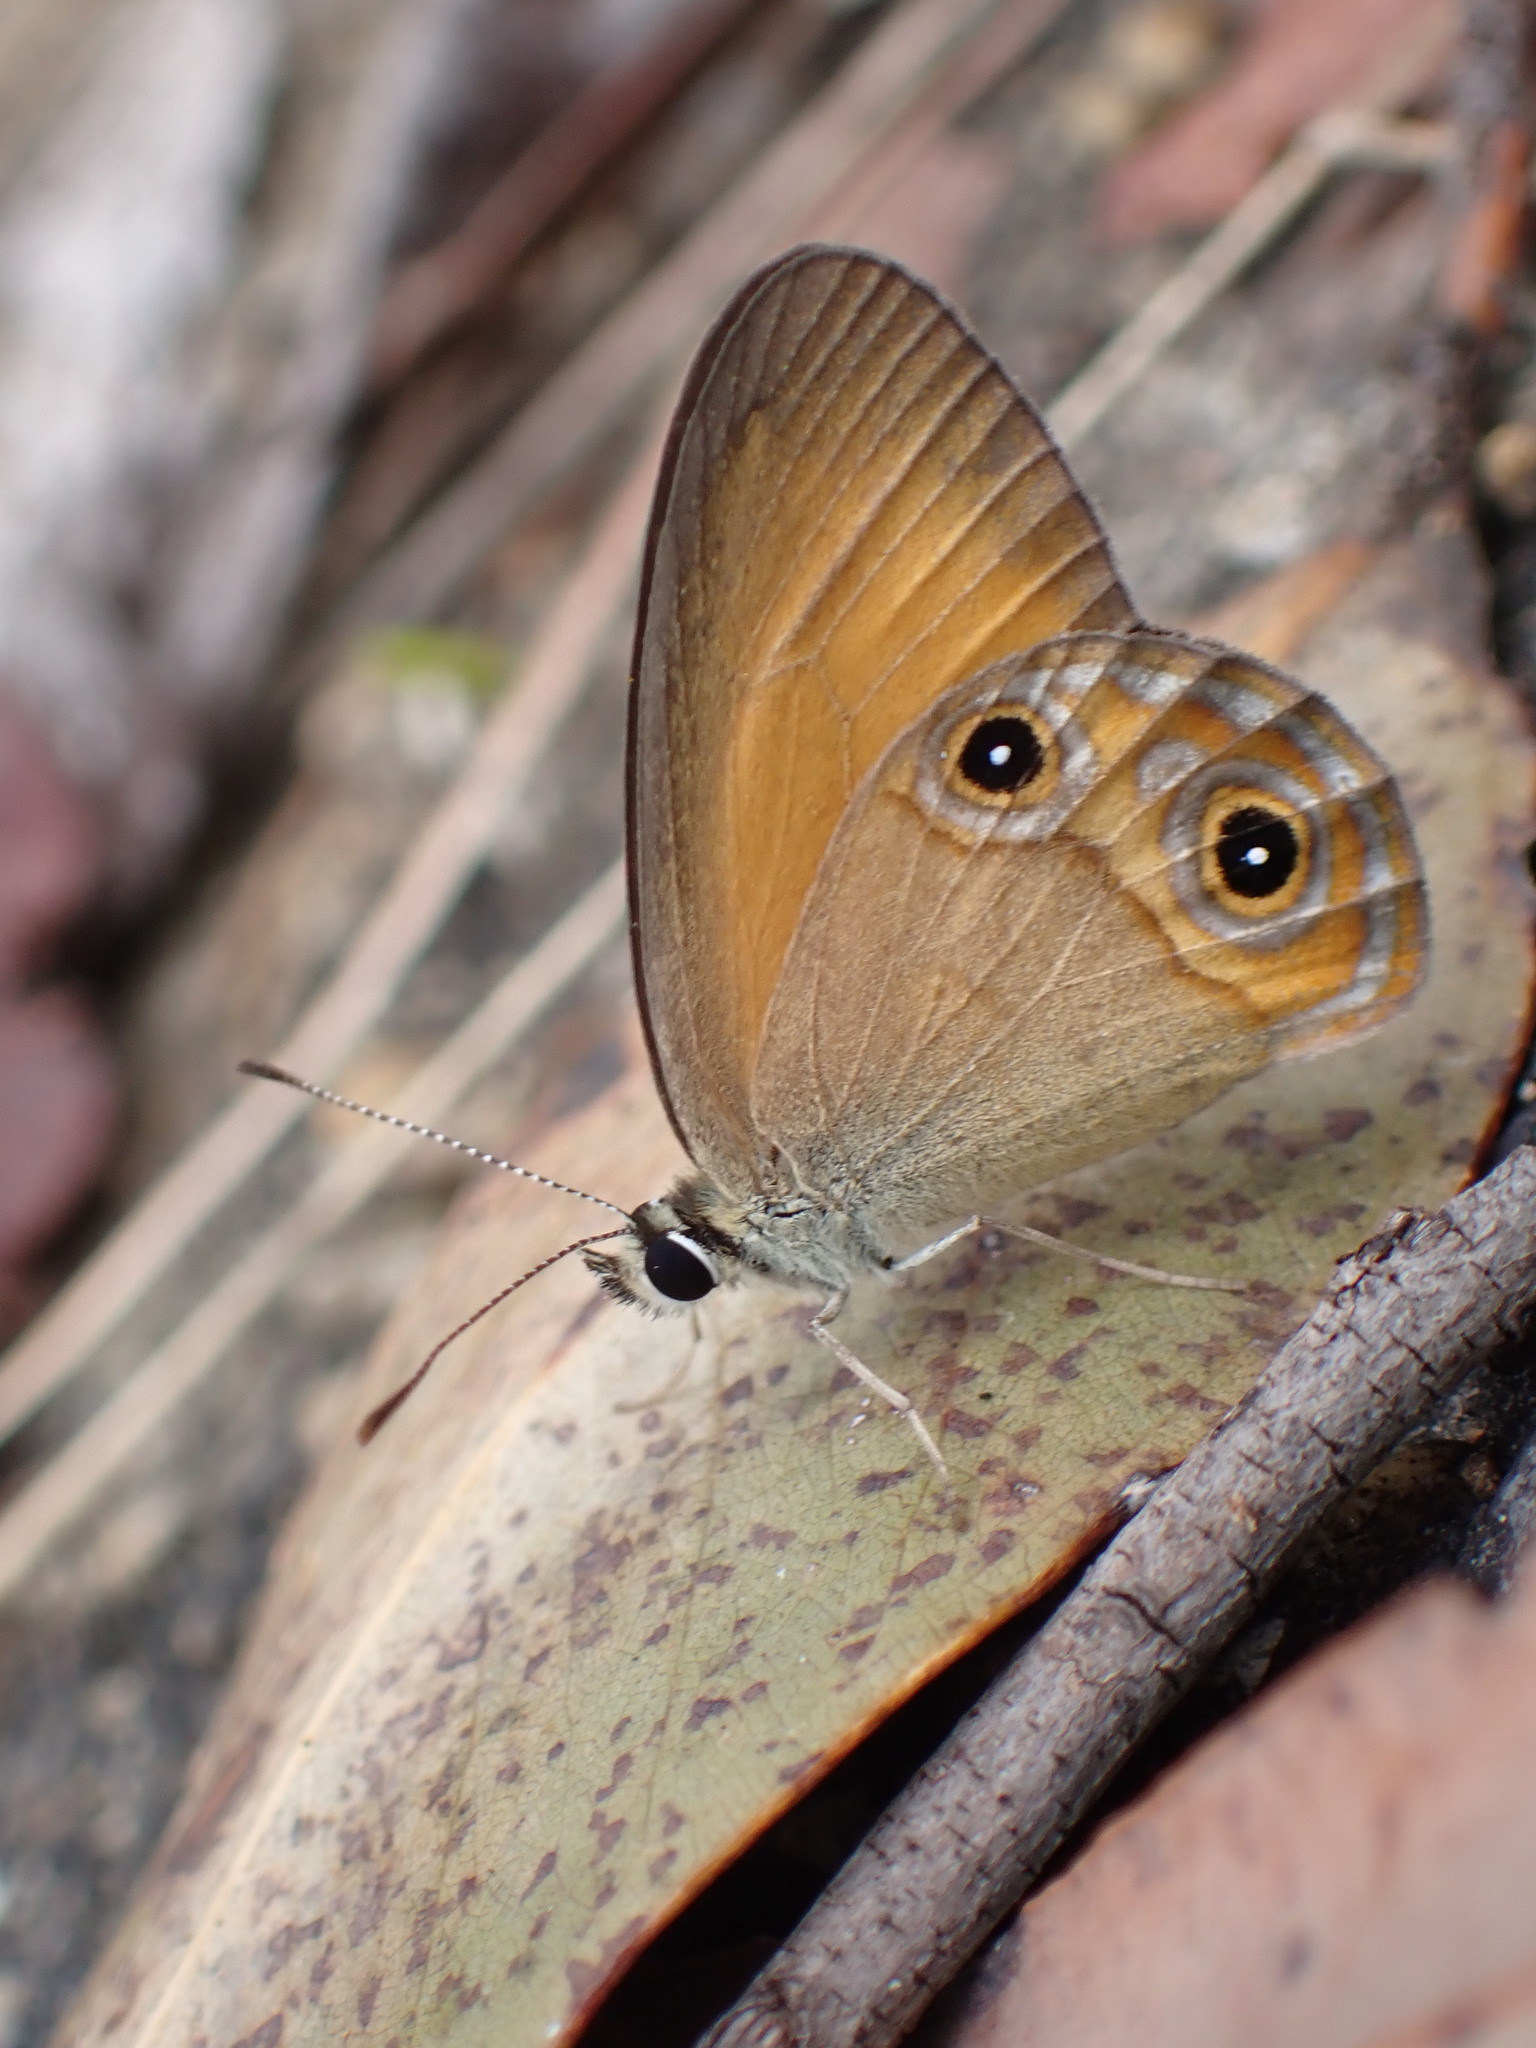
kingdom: Animalia
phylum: Arthropoda
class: Insecta
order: Lepidoptera
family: Nymphalidae
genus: Hypocysta
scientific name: Hypocysta adiante
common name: Orange ringlet
